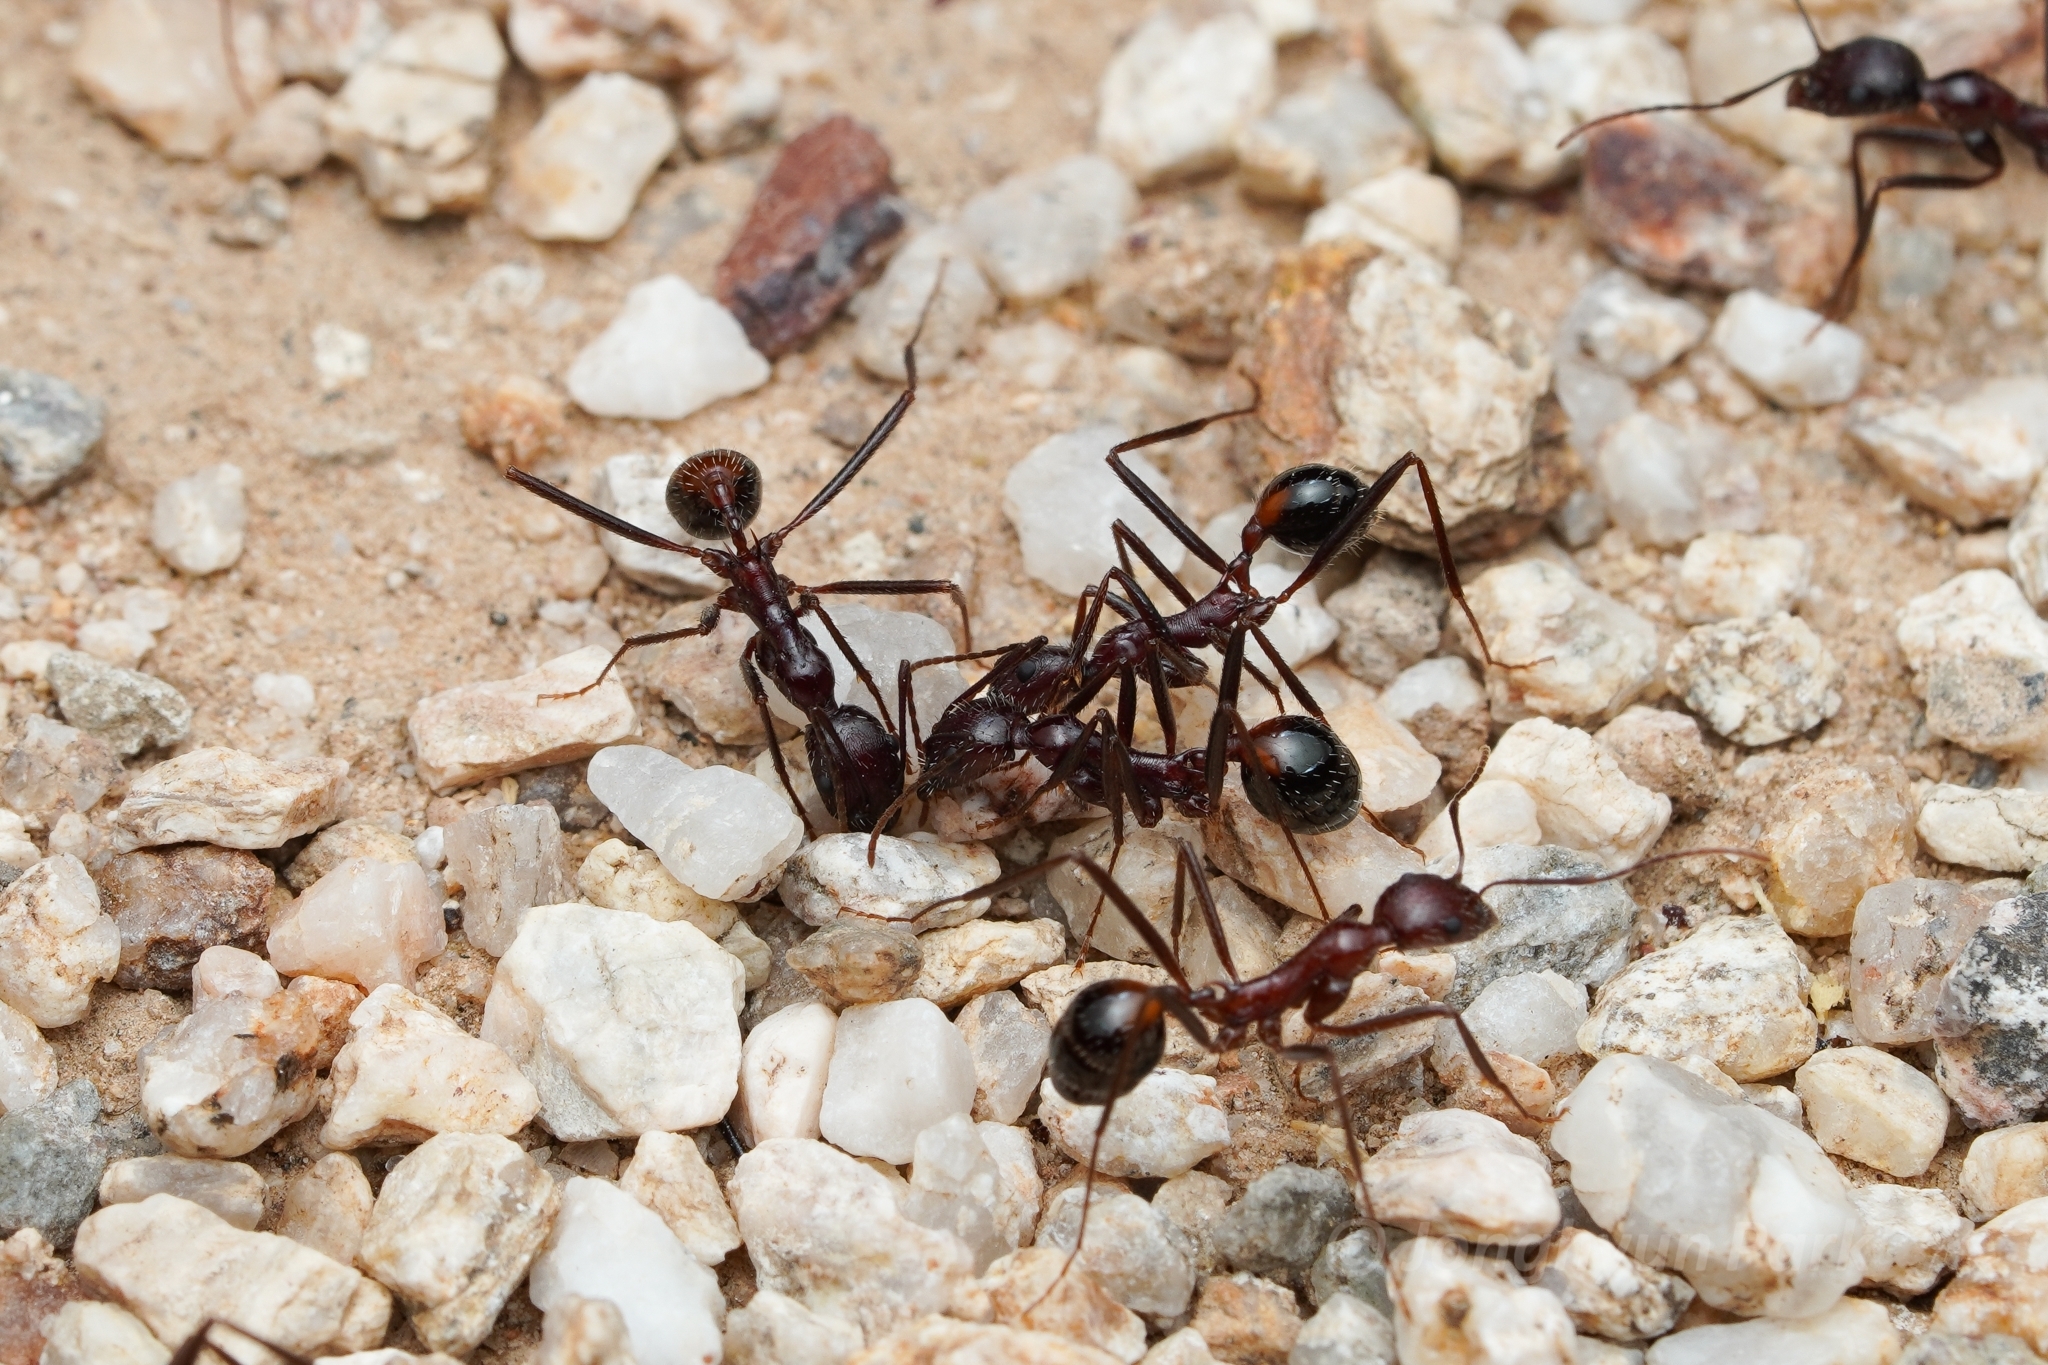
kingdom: Animalia
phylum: Arthropoda
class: Insecta
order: Hymenoptera
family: Formicidae
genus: Novomessor
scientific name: Novomessor cockerelli
